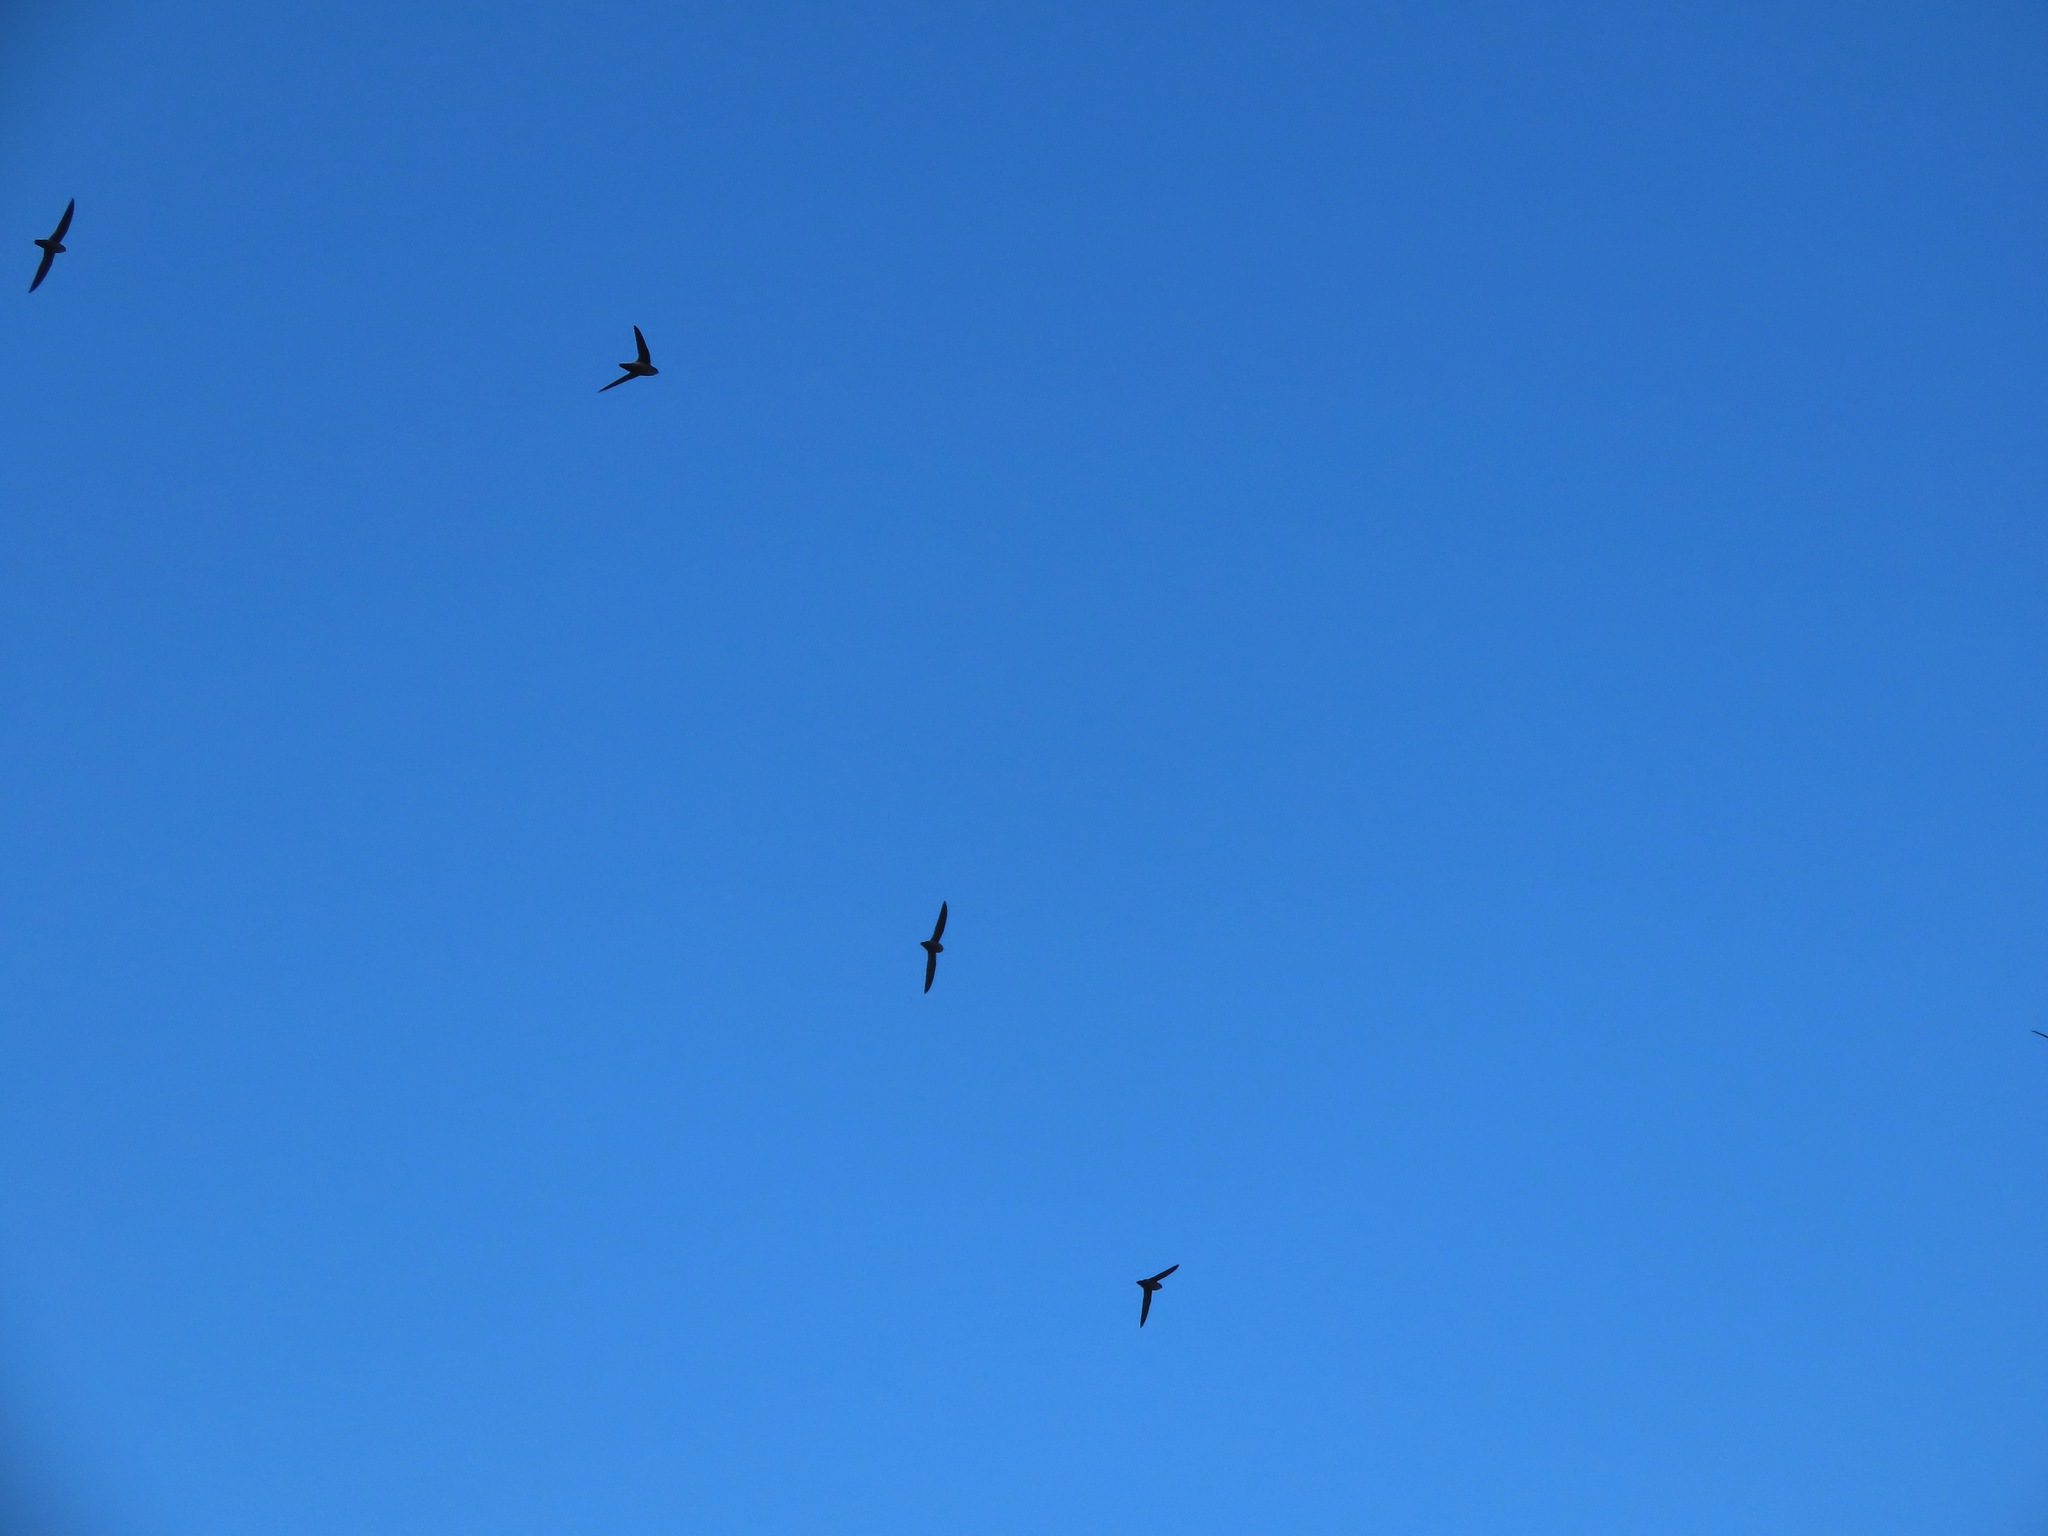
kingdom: Animalia
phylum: Chordata
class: Aves
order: Apodiformes
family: Apodidae
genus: Chaetura
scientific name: Chaetura vauxi
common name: Vaux's swift
